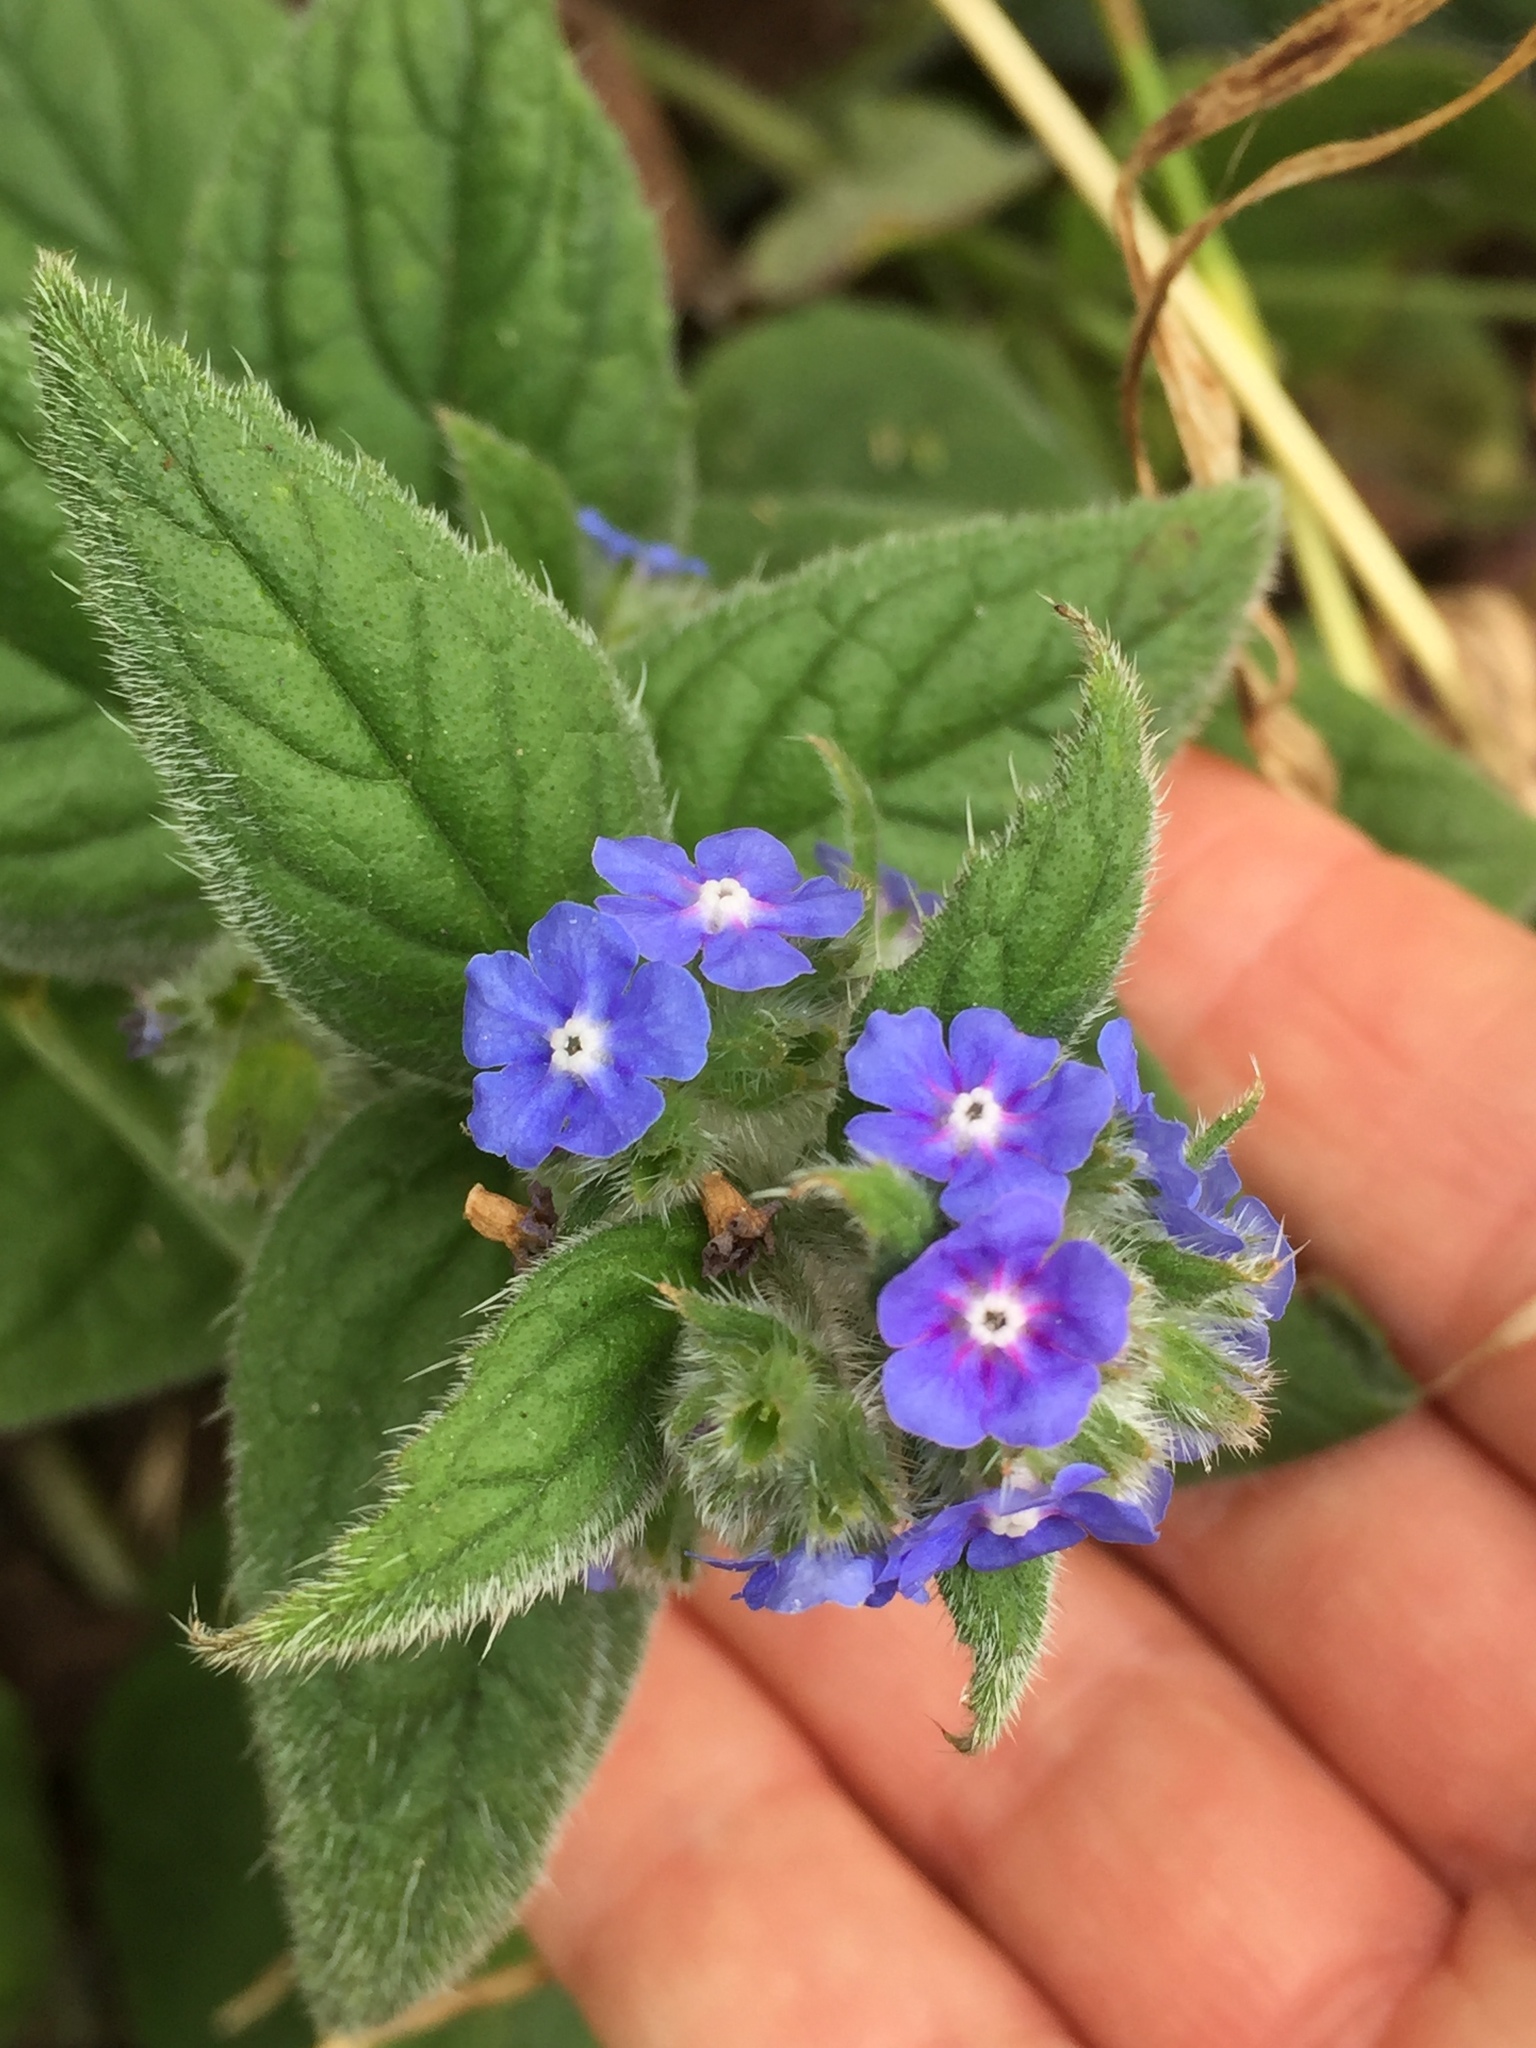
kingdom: Plantae
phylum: Tracheophyta
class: Magnoliopsida
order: Boraginales
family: Boraginaceae
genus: Pentaglottis
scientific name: Pentaglottis sempervirens
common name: Green alkanet
